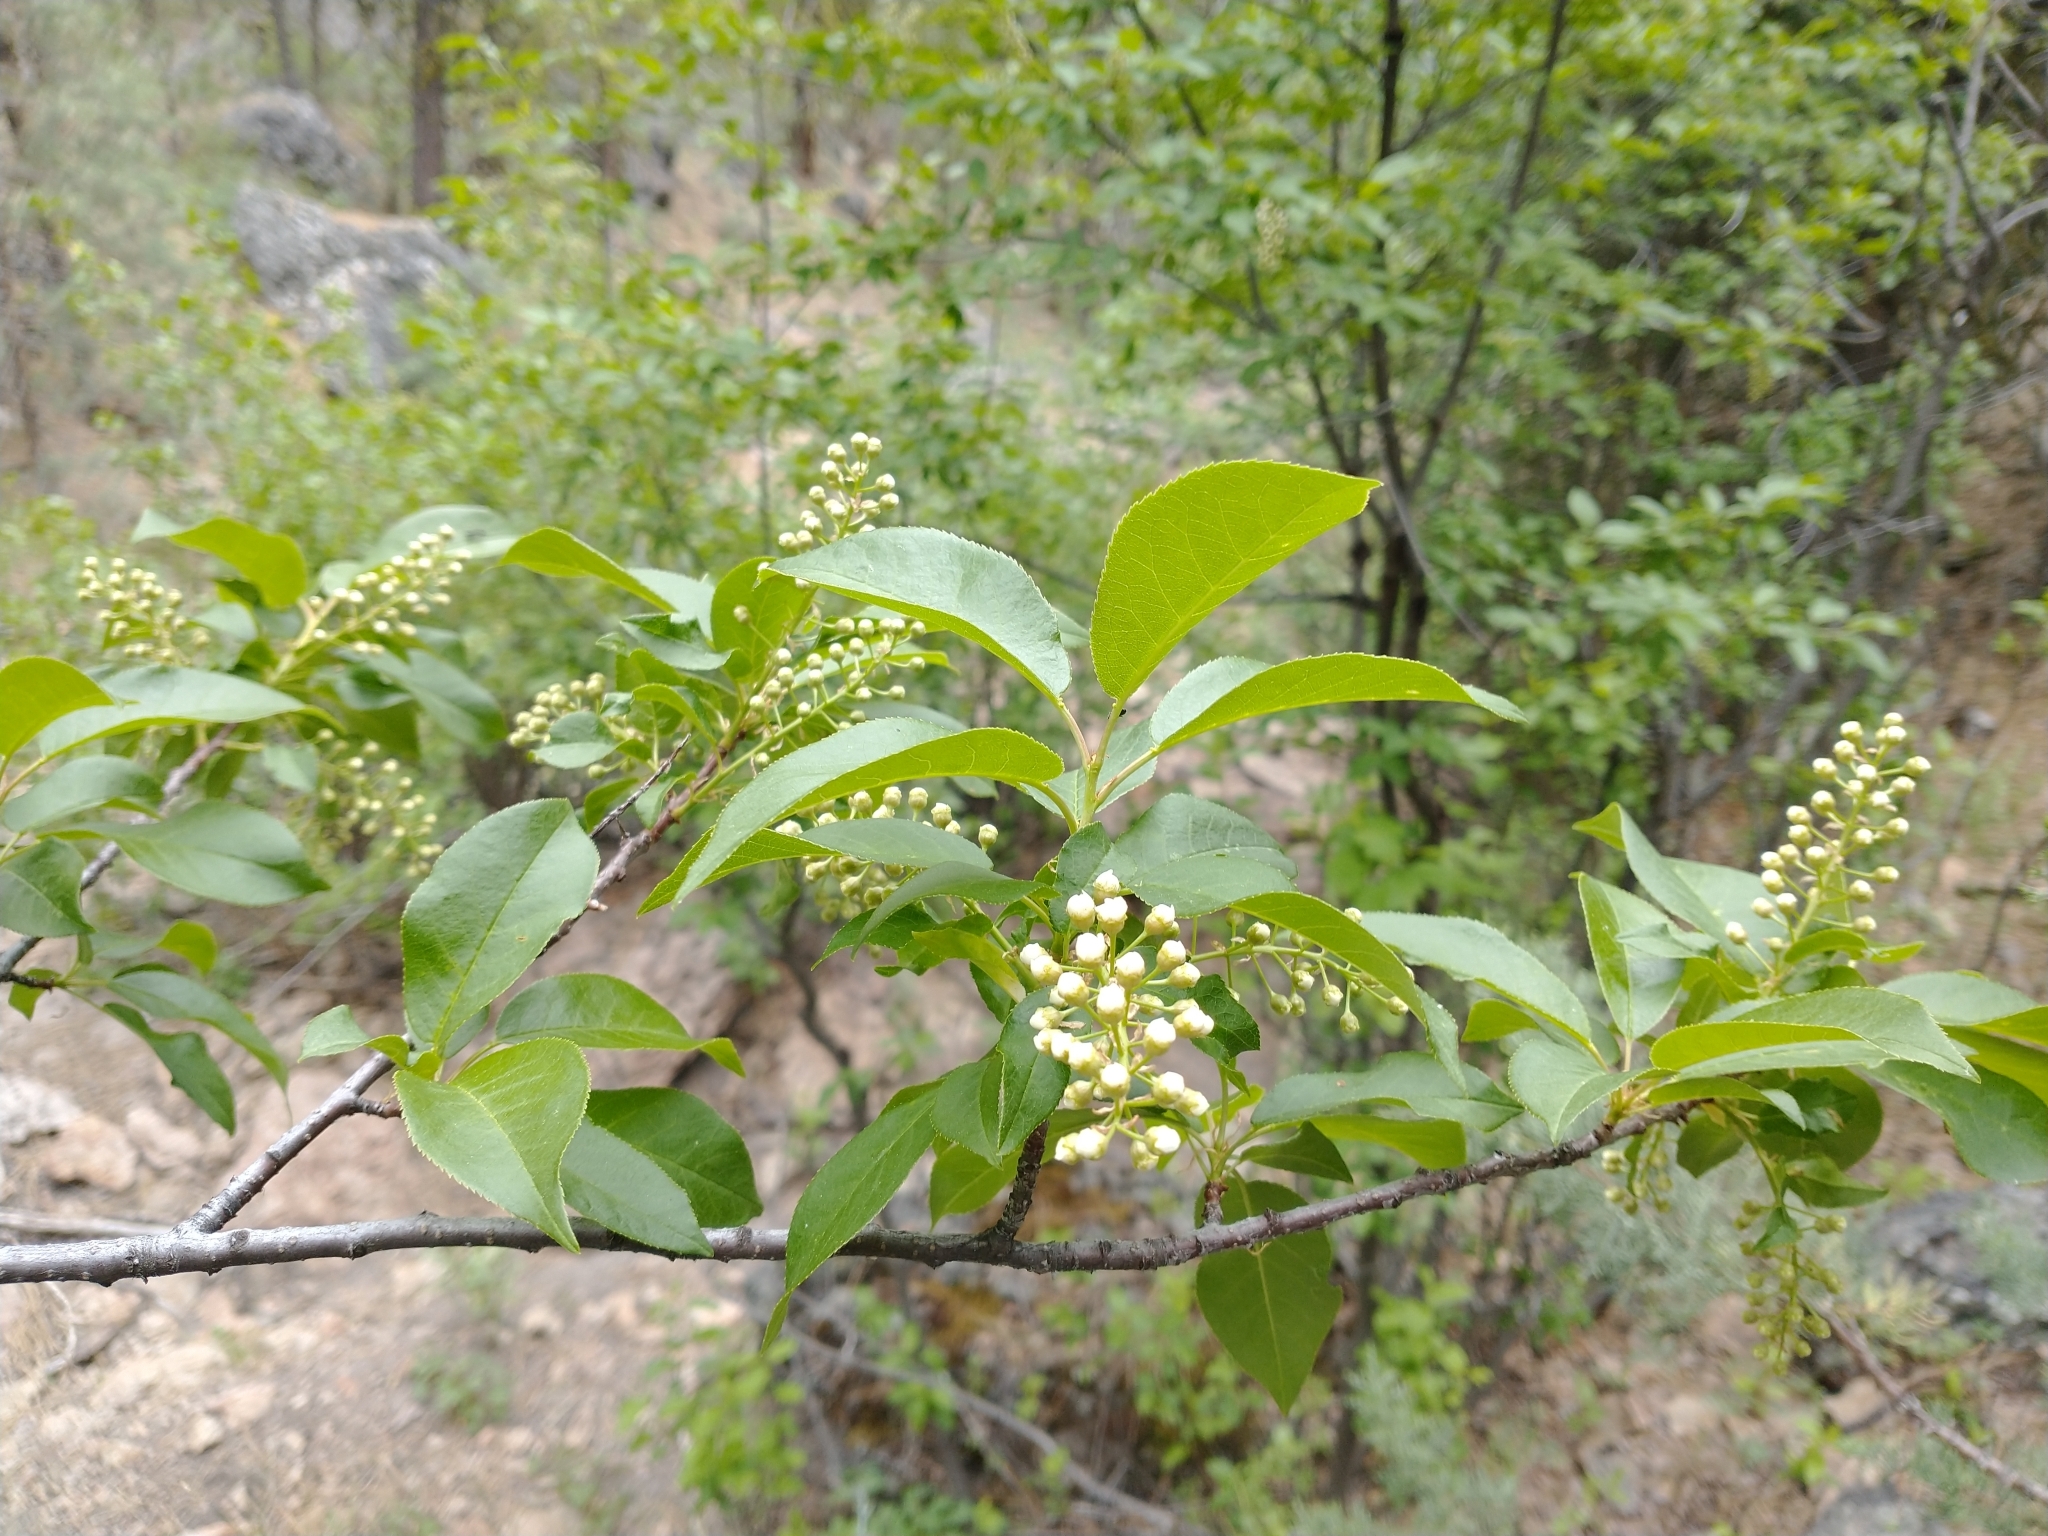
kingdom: Plantae
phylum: Tracheophyta
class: Magnoliopsida
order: Rosales
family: Rosaceae
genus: Prunus
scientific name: Prunus virginiana
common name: Chokecherry
